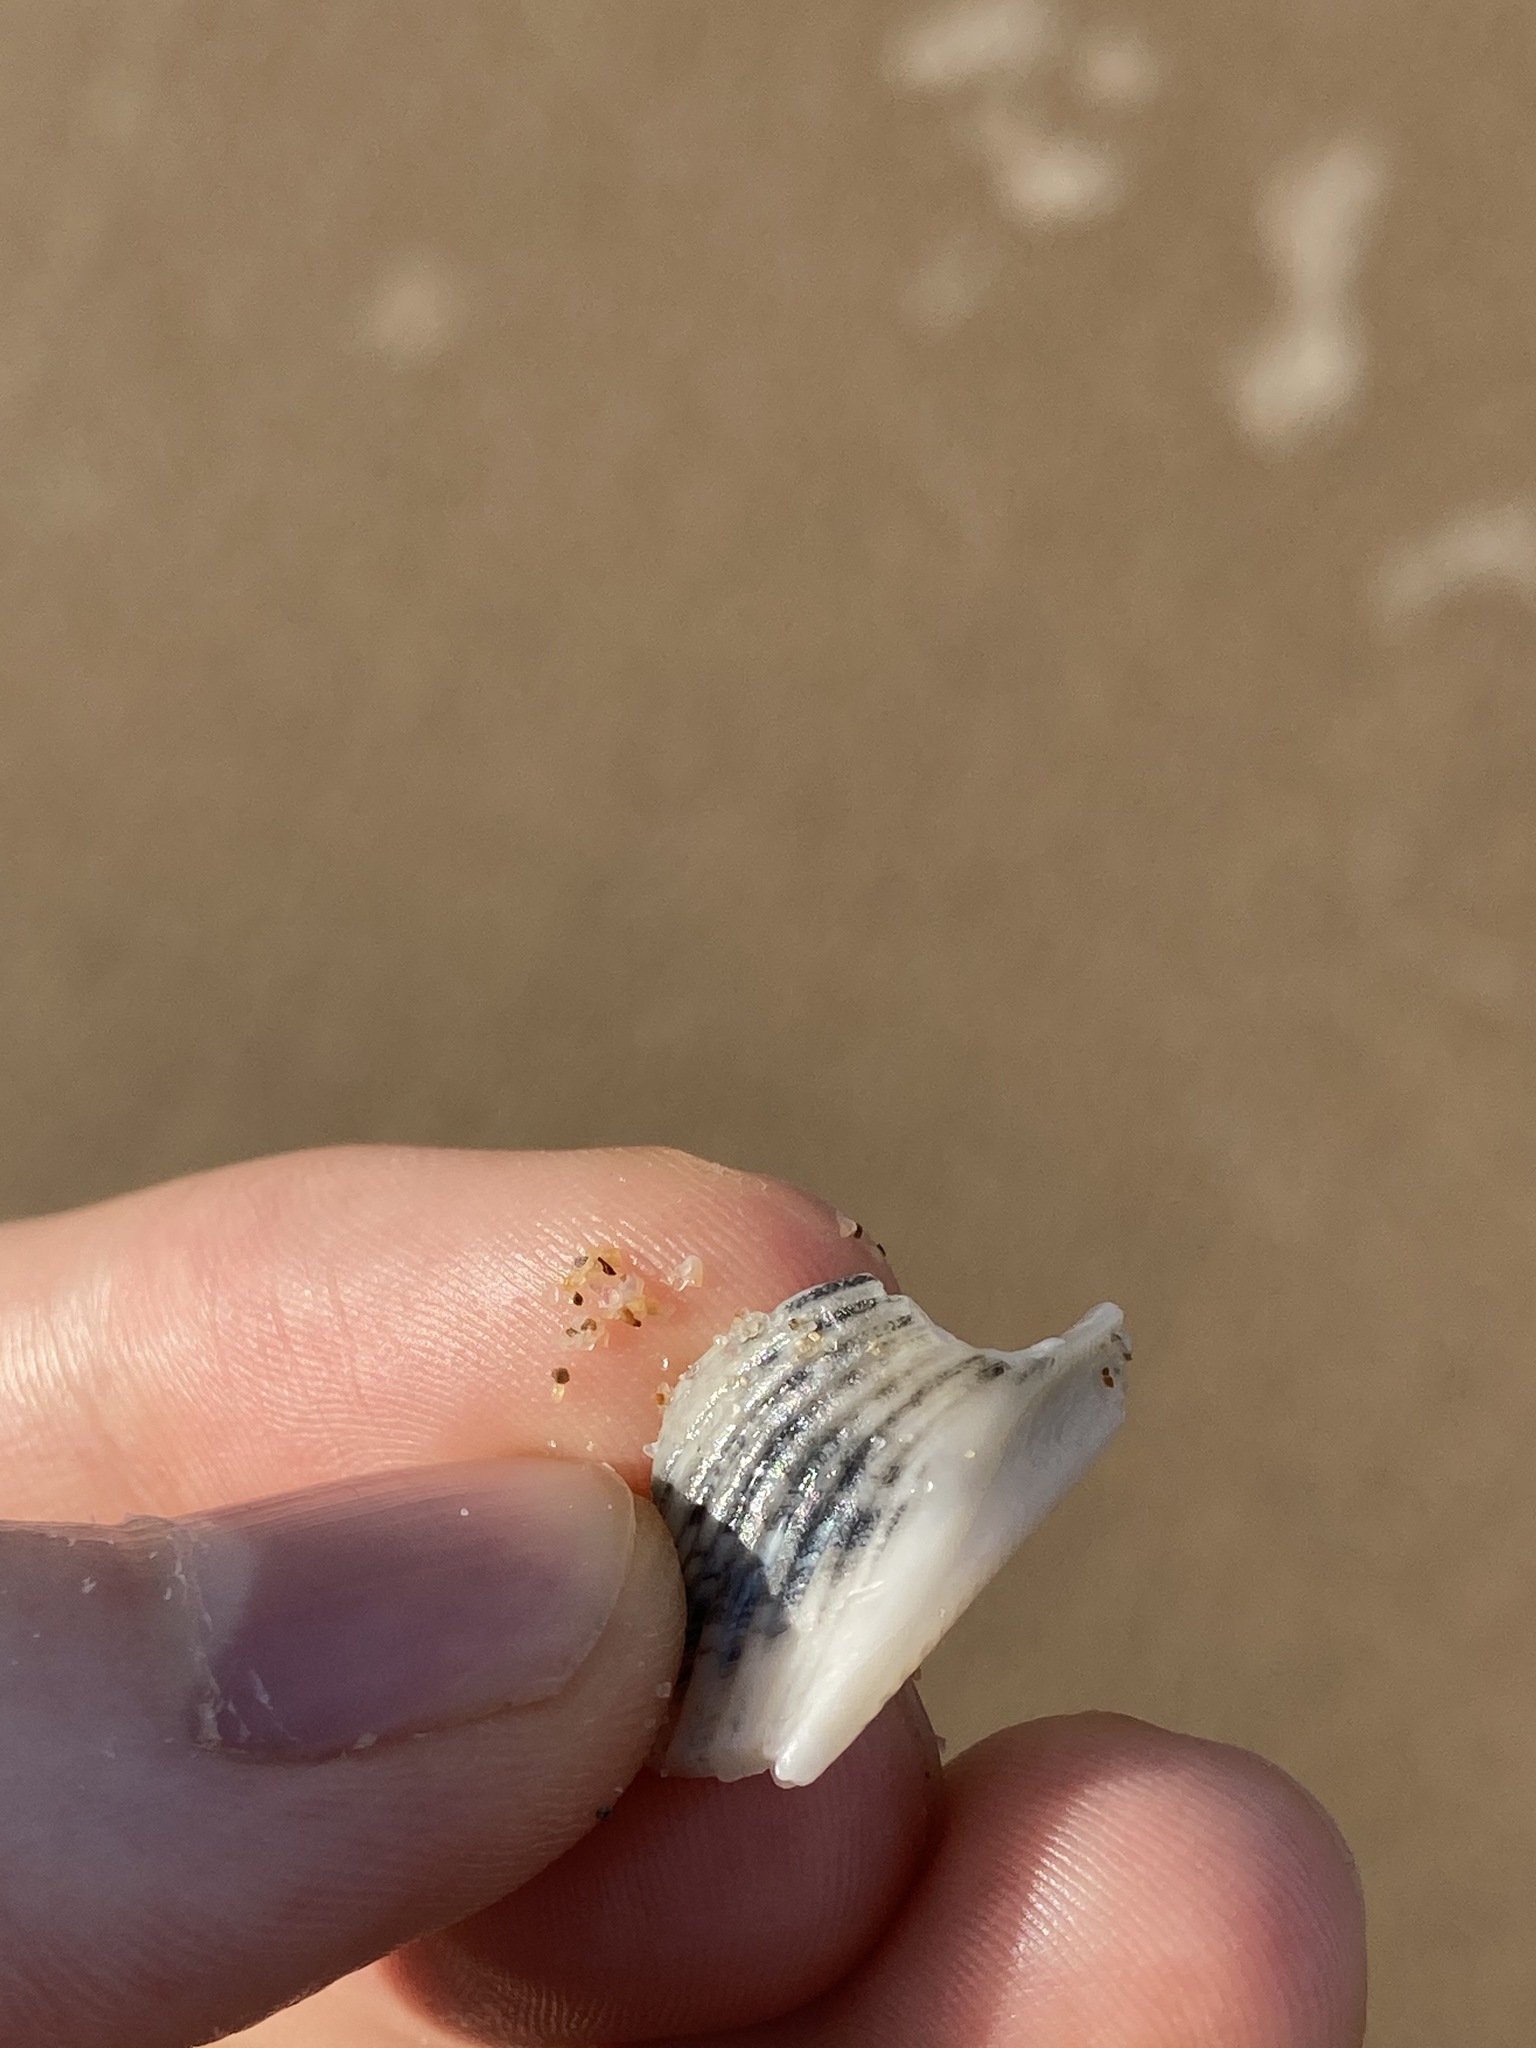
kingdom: Animalia
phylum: Mollusca
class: Bivalvia
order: Cardiida
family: Cardiidae
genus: Vepricardium
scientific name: Vepricardium multispinosum
